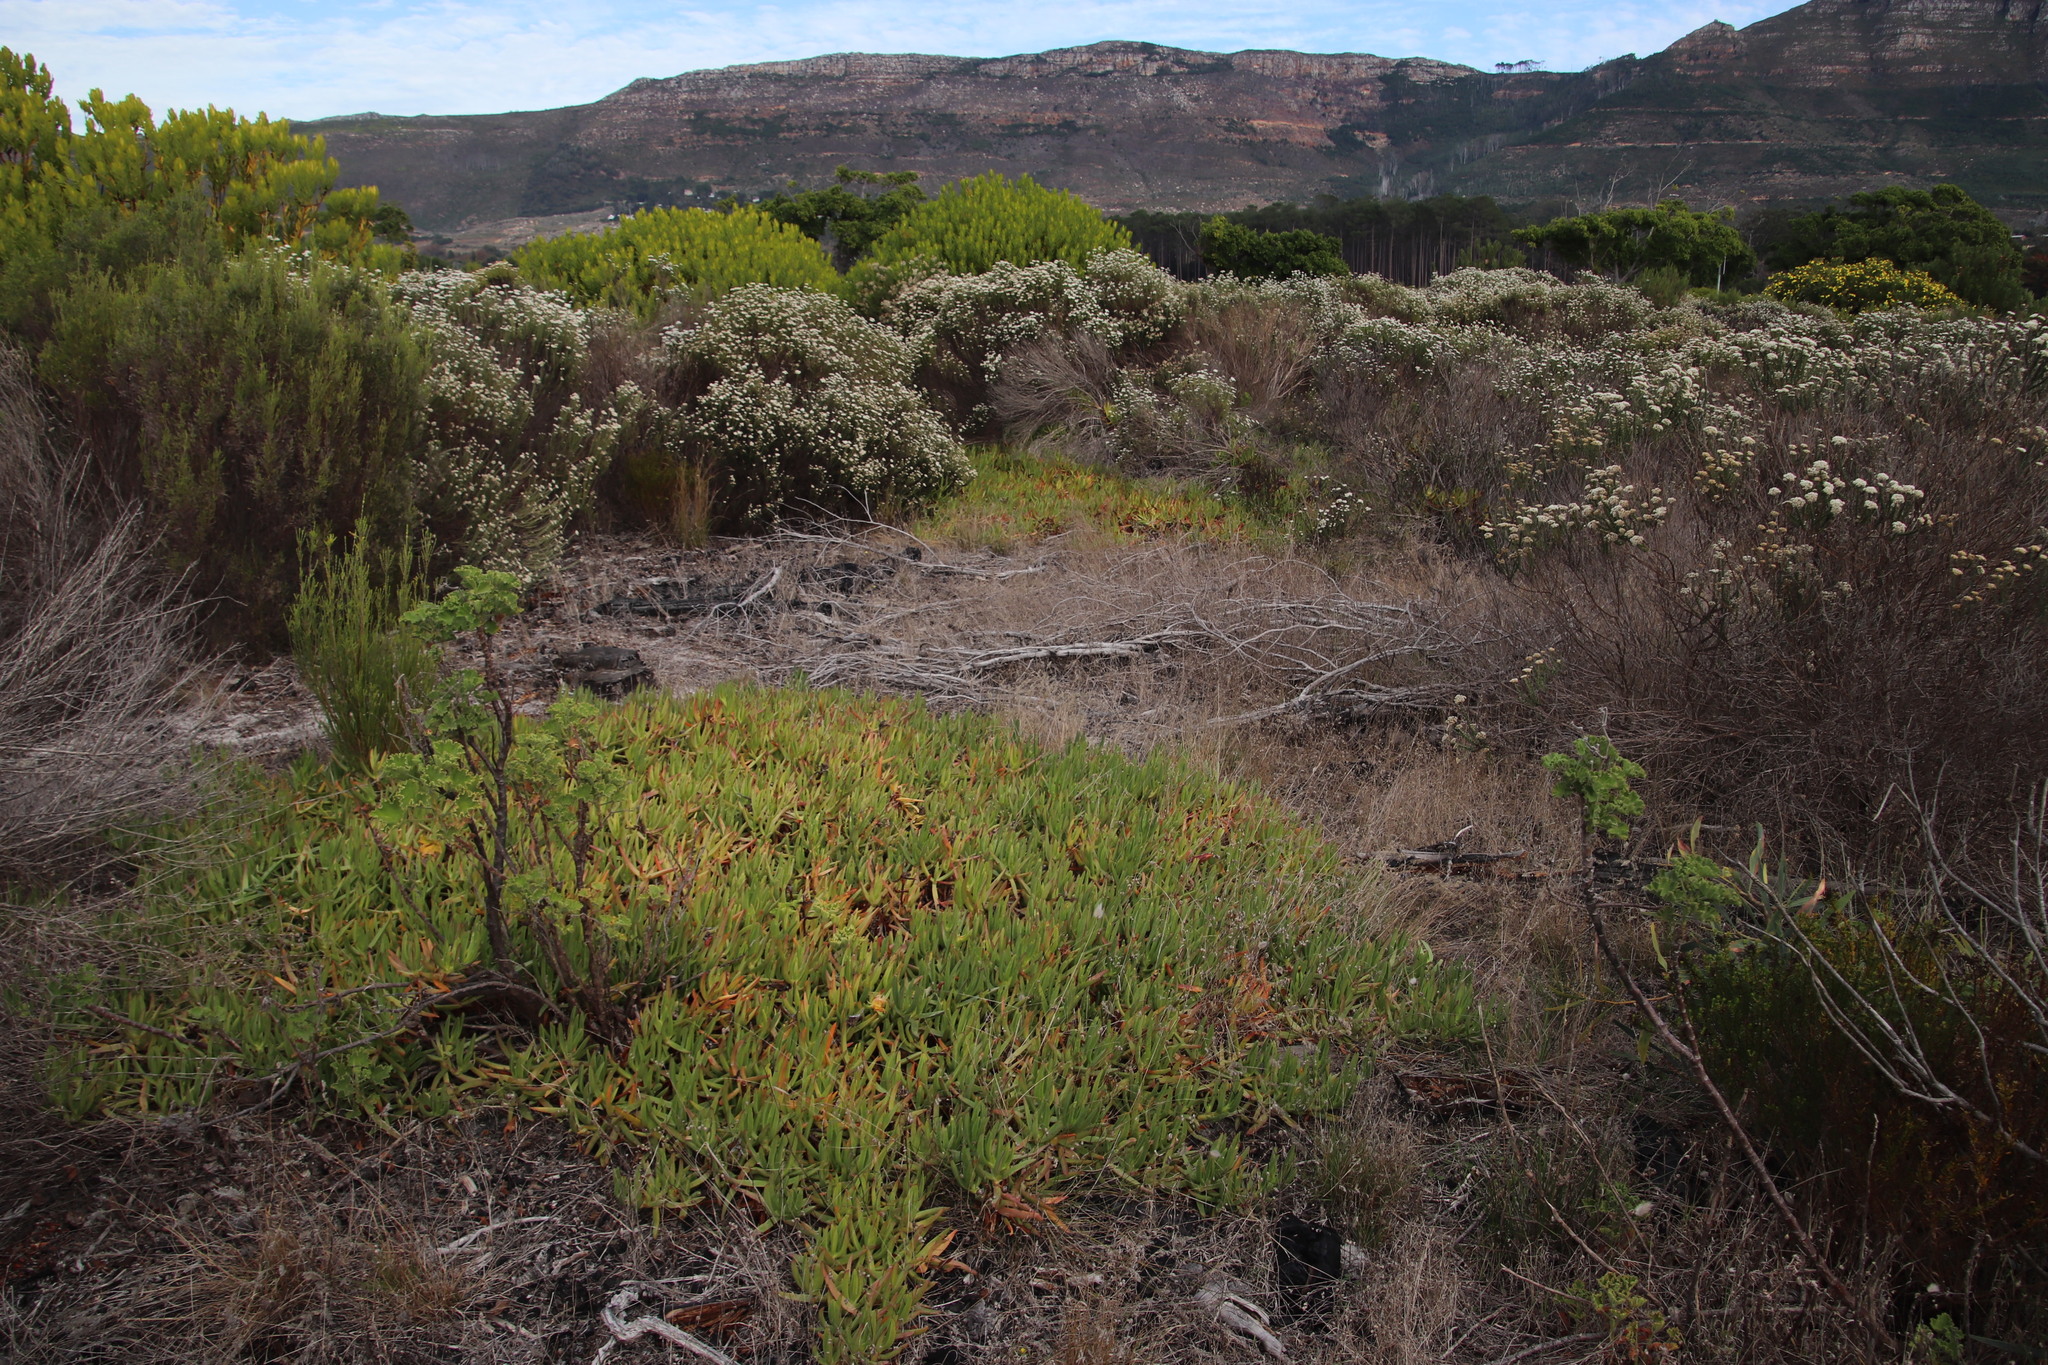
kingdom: Plantae
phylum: Tracheophyta
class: Magnoliopsida
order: Caryophyllales
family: Aizoaceae
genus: Carpobrotus
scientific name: Carpobrotus edulis
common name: Hottentot-fig
